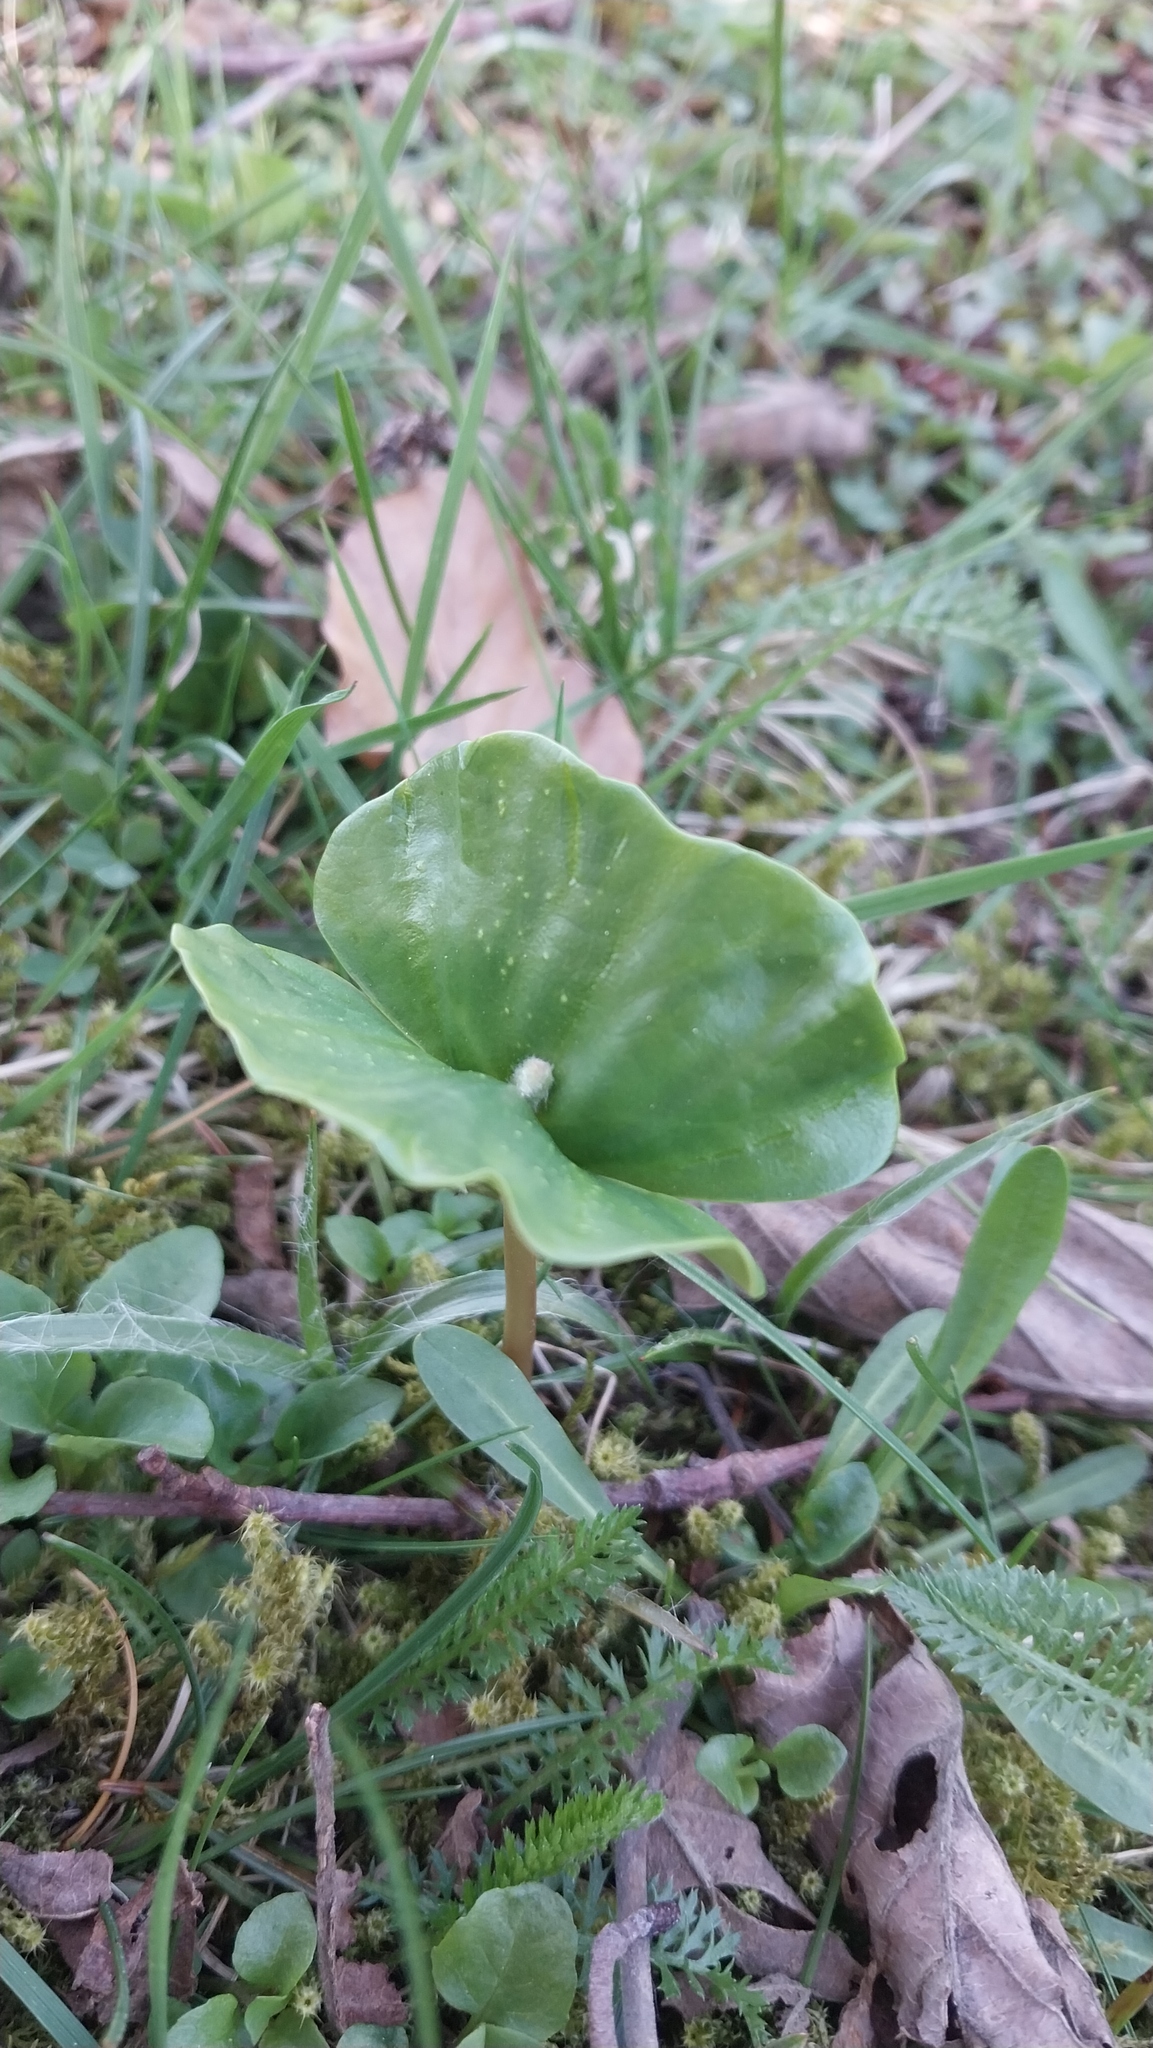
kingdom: Plantae
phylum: Tracheophyta
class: Magnoliopsida
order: Fagales
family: Fagaceae
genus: Fagus
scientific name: Fagus sylvatica
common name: Beech
